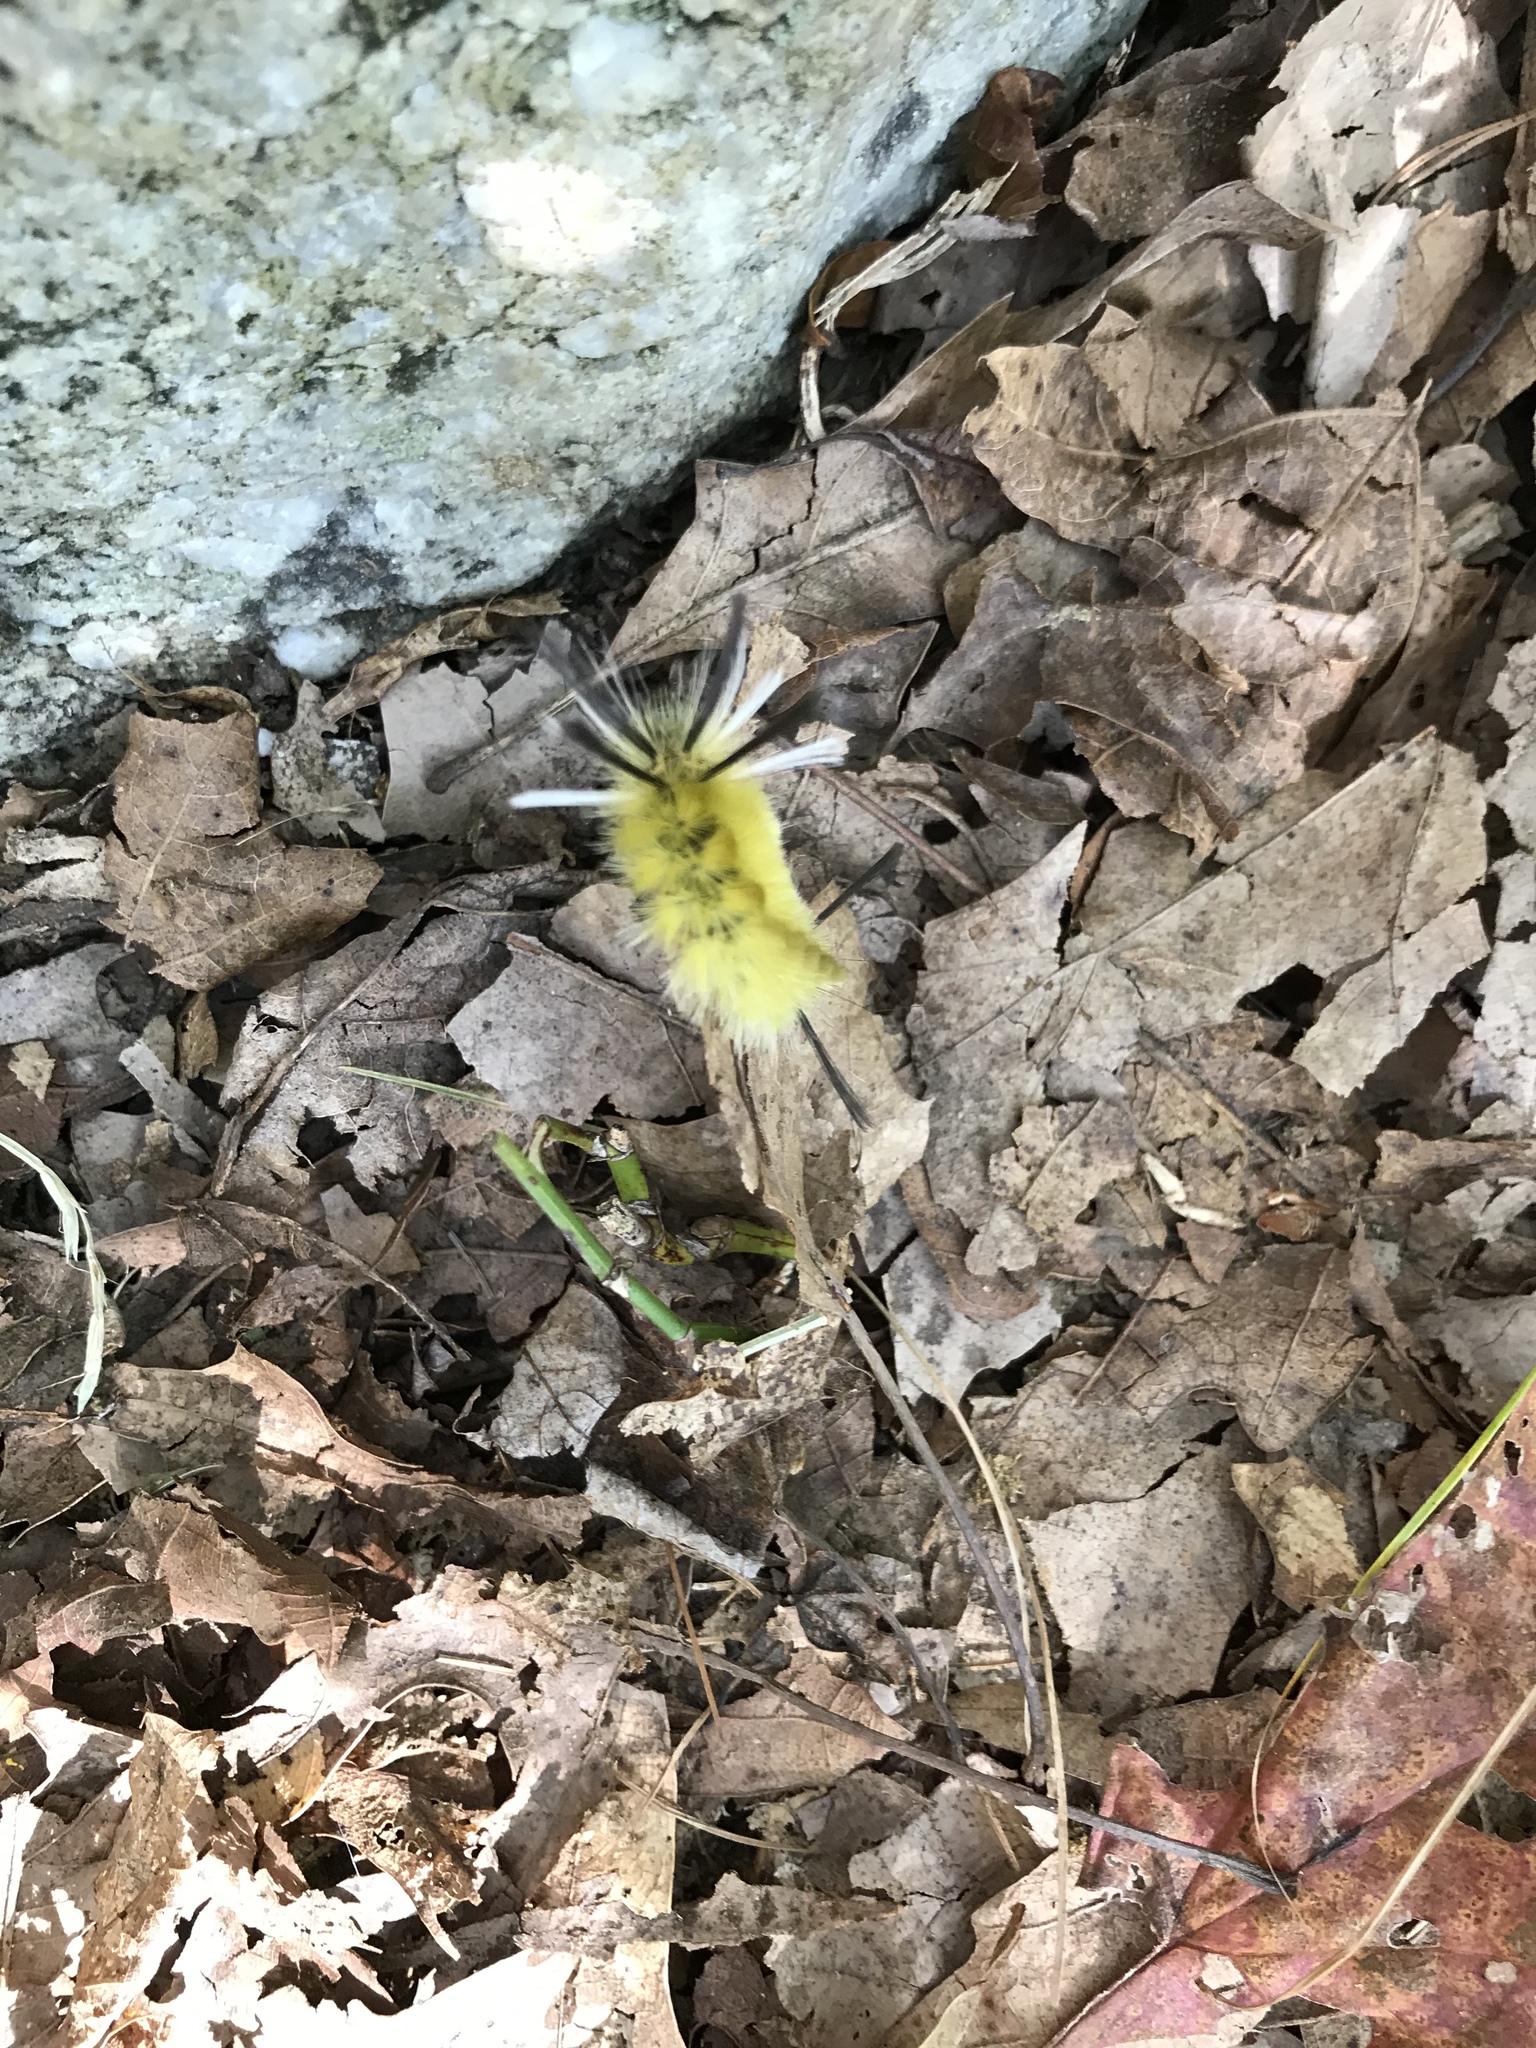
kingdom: Animalia
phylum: Arthropoda
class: Insecta
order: Lepidoptera
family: Erebidae
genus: Halysidota
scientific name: Halysidota tessellaris
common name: Banded tussock moth
